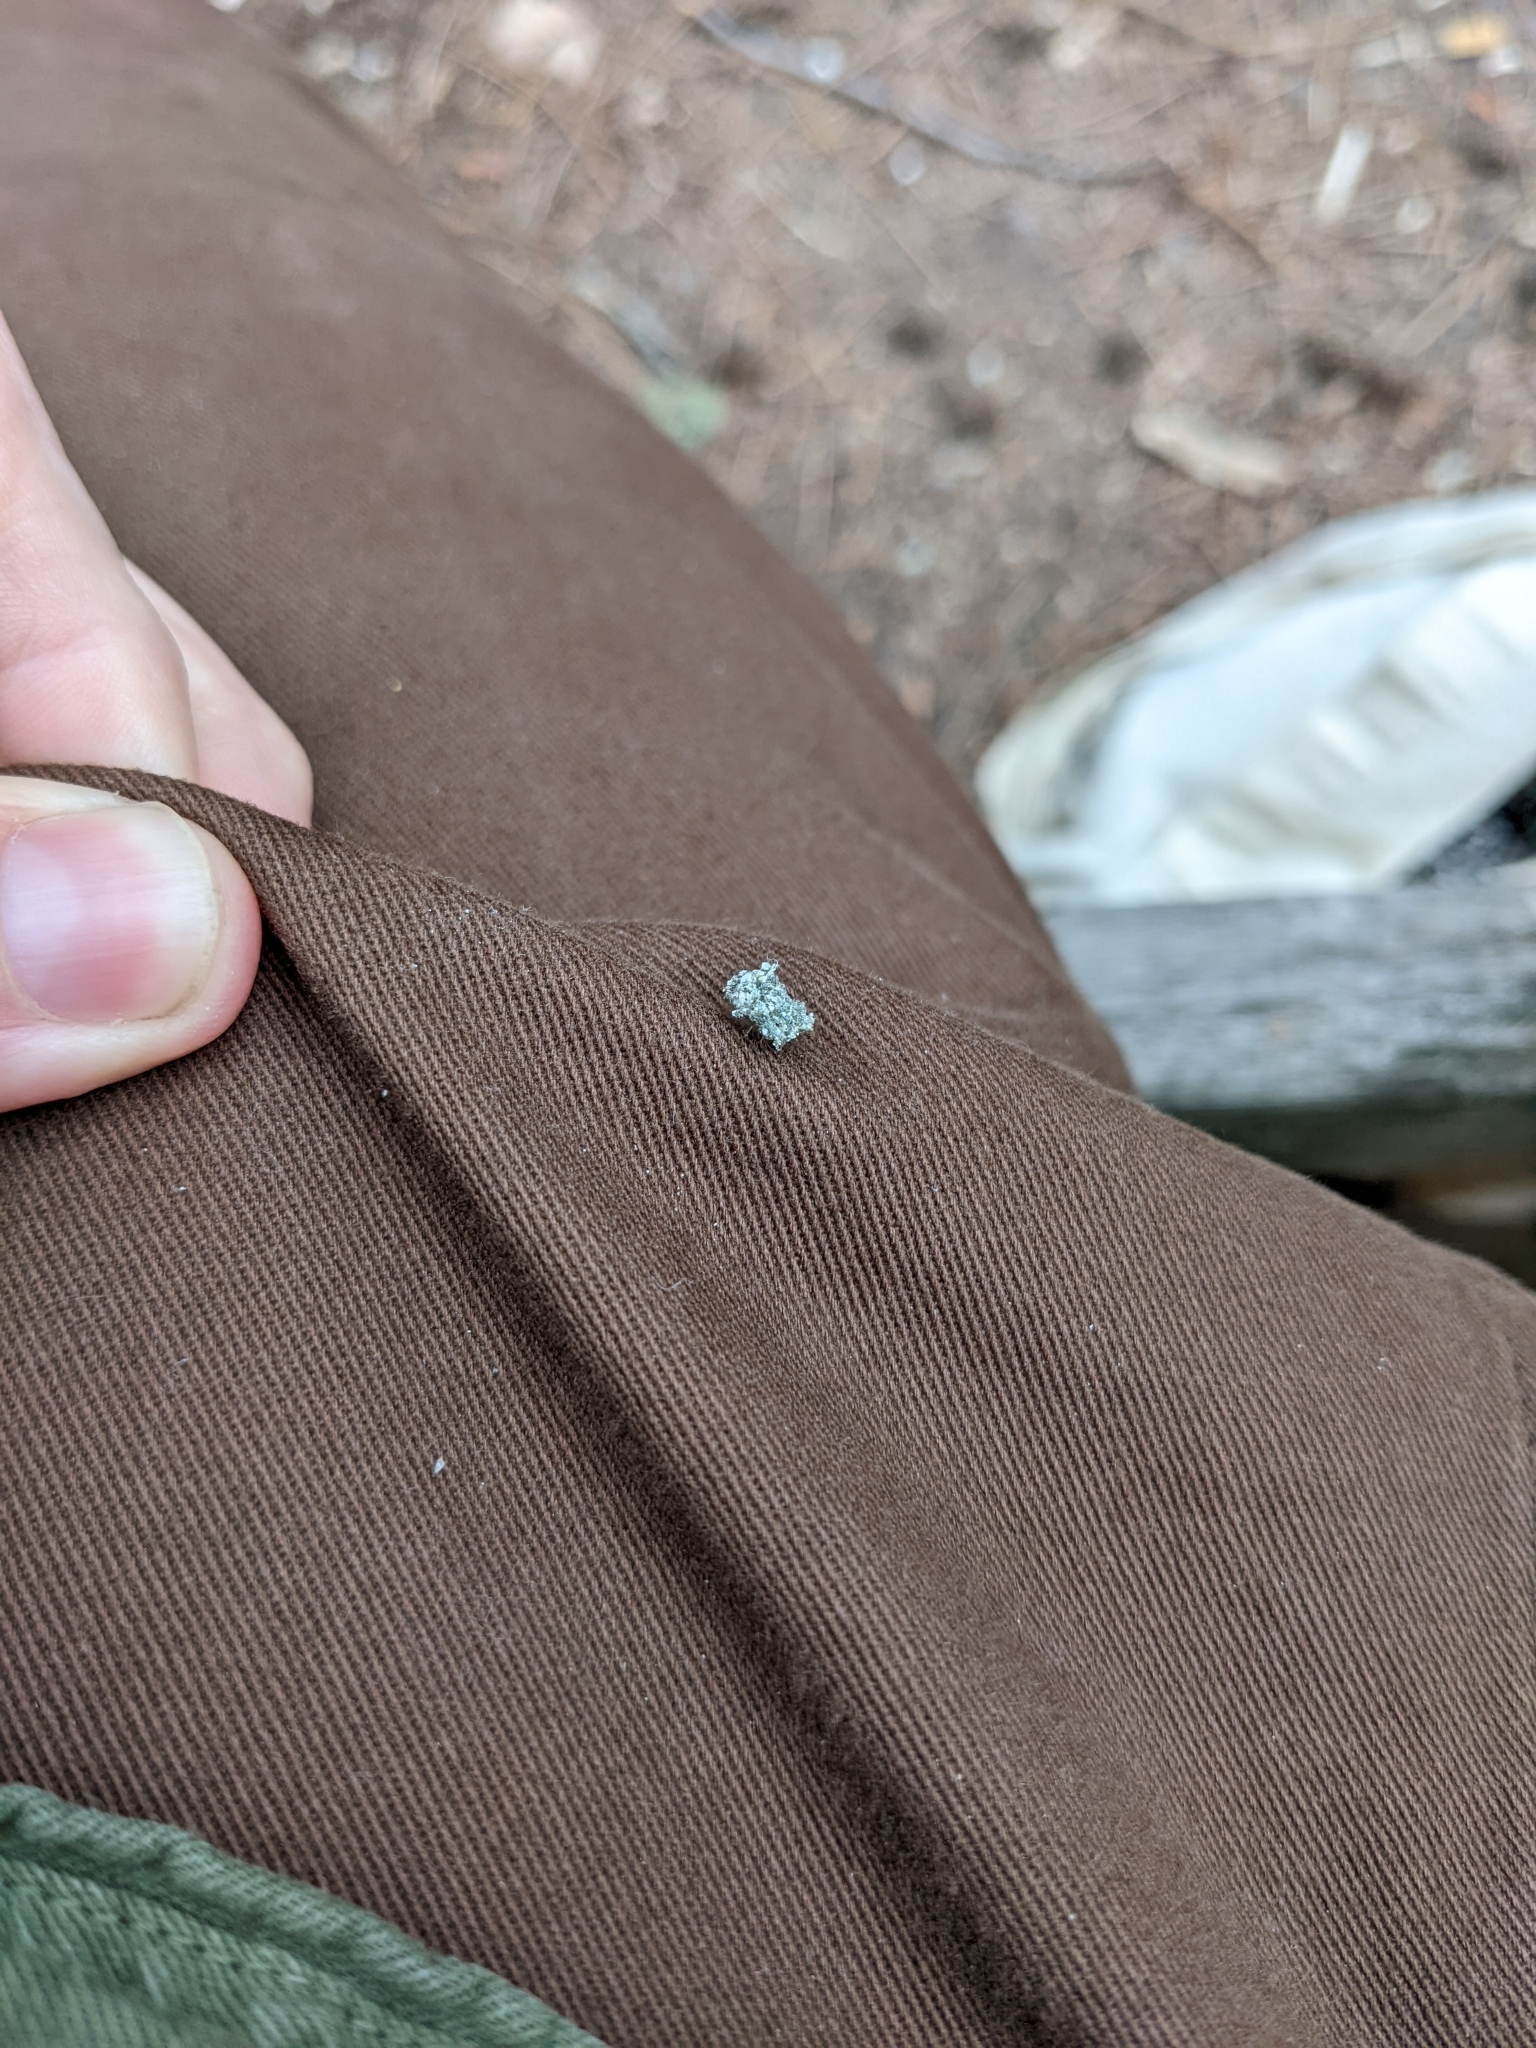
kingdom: Animalia
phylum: Arthropoda
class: Insecta
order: Neuroptera
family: Chrysopidae
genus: Leucochrysa
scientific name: Leucochrysa pavida
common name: Lichen-carrying green lacewing
